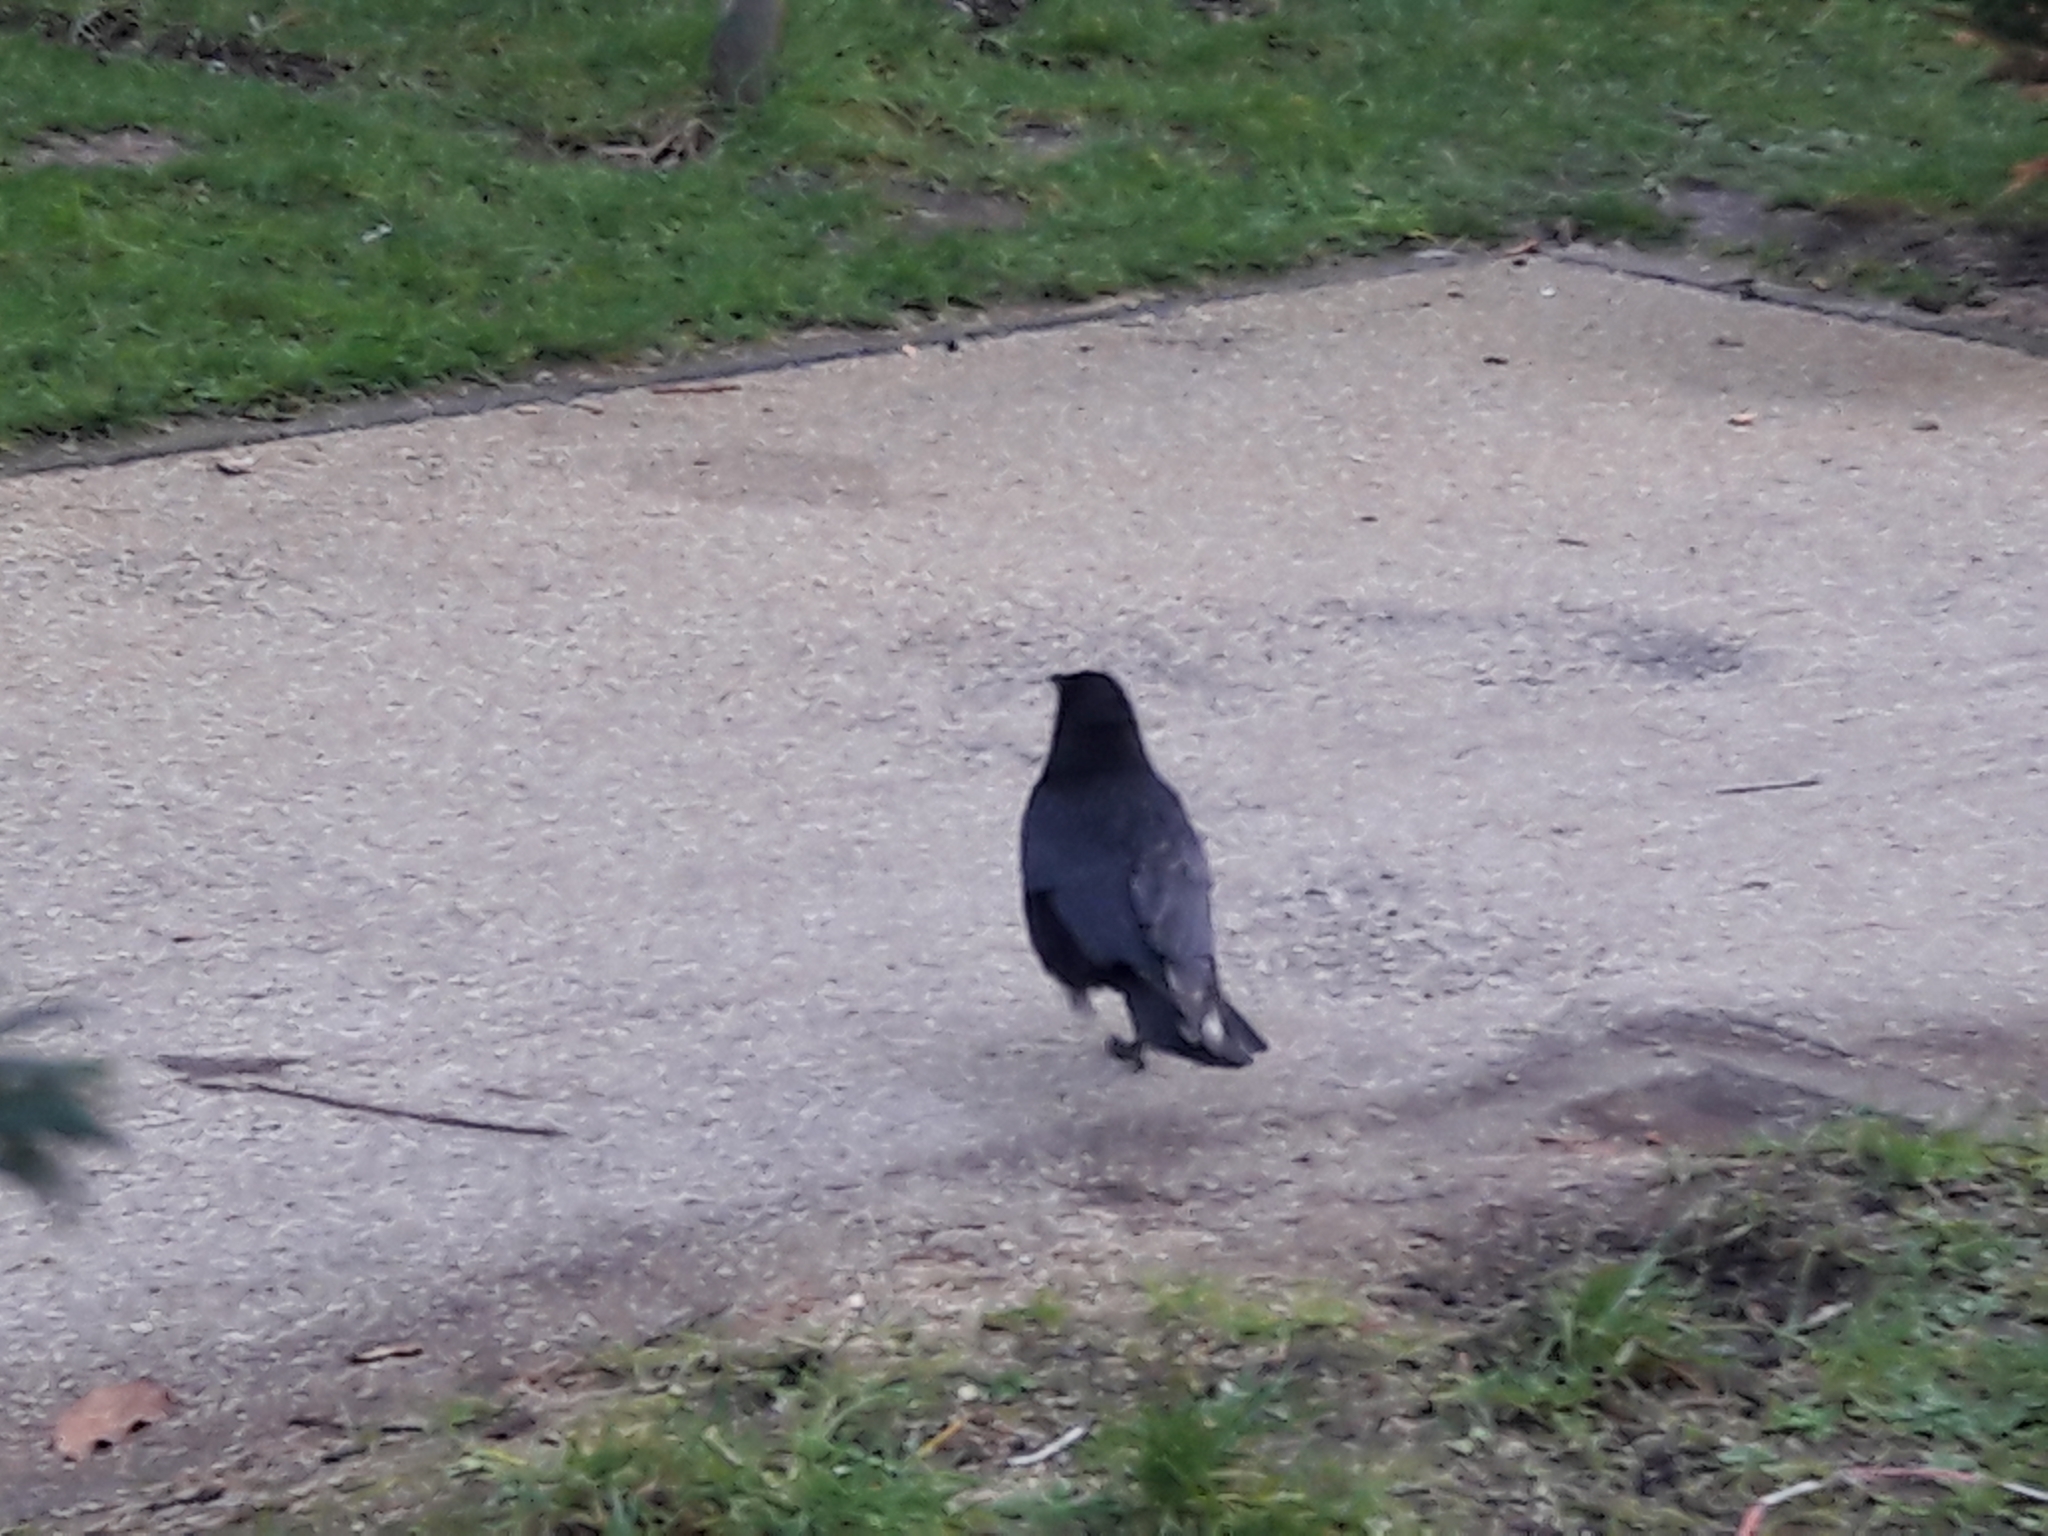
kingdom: Animalia
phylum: Chordata
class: Aves
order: Passeriformes
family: Corvidae
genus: Corvus
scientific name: Corvus corone
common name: Carrion crow
